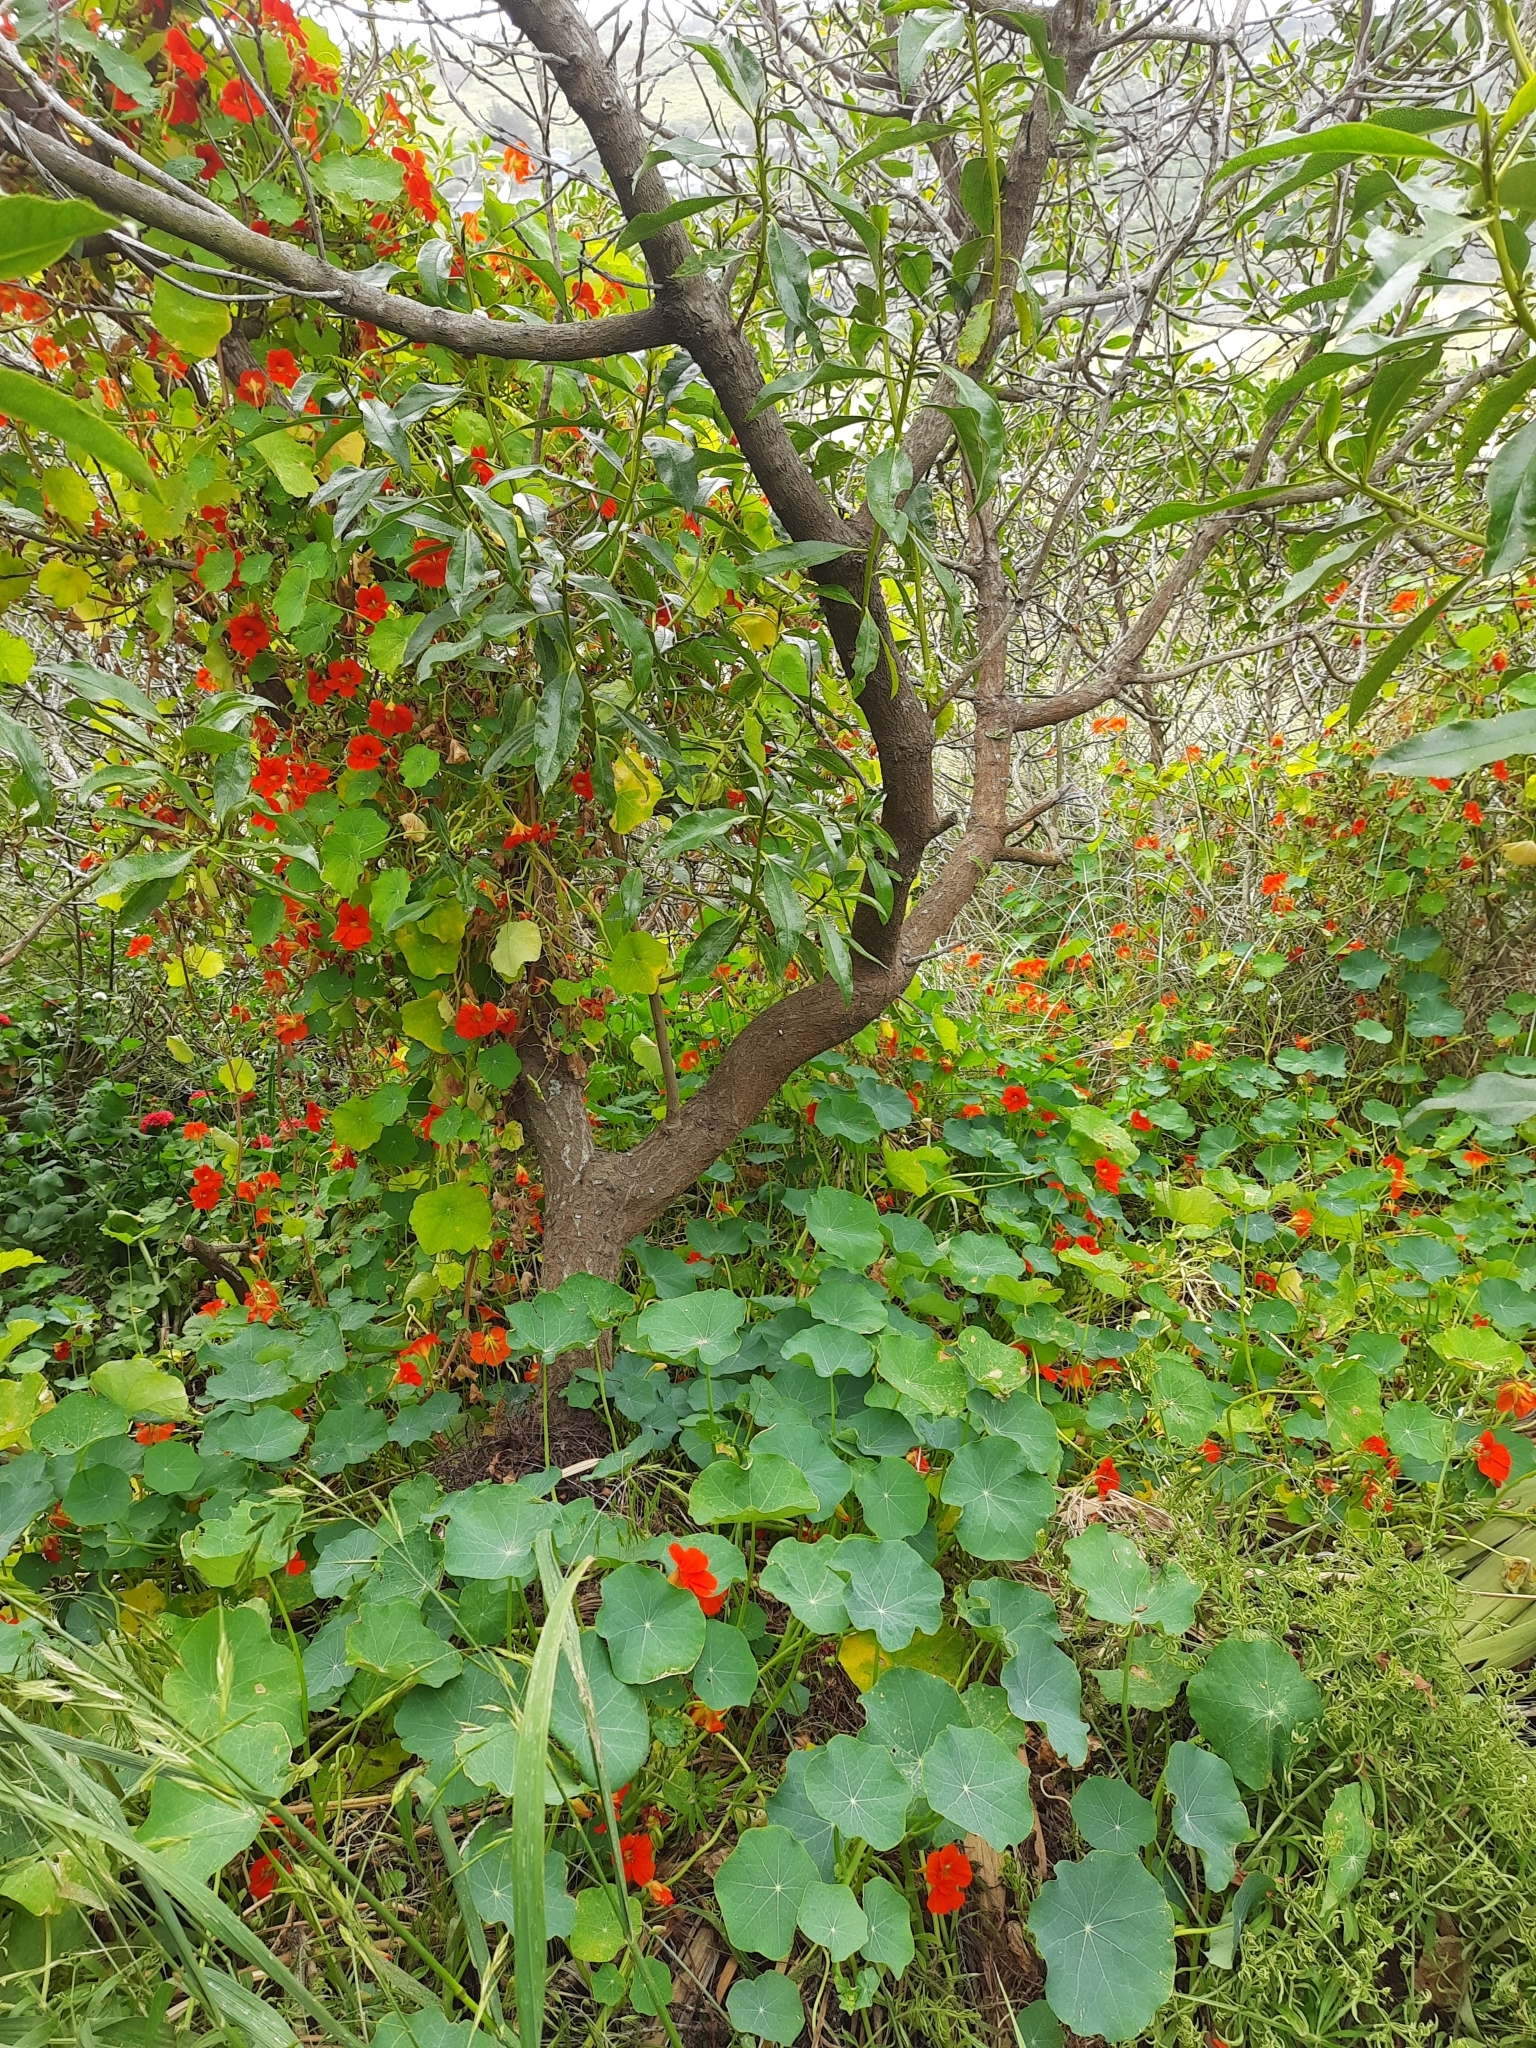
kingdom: Plantae
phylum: Tracheophyta
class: Magnoliopsida
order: Brassicales
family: Tropaeolaceae
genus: Tropaeolum
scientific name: Tropaeolum majus
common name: Nasturtium
